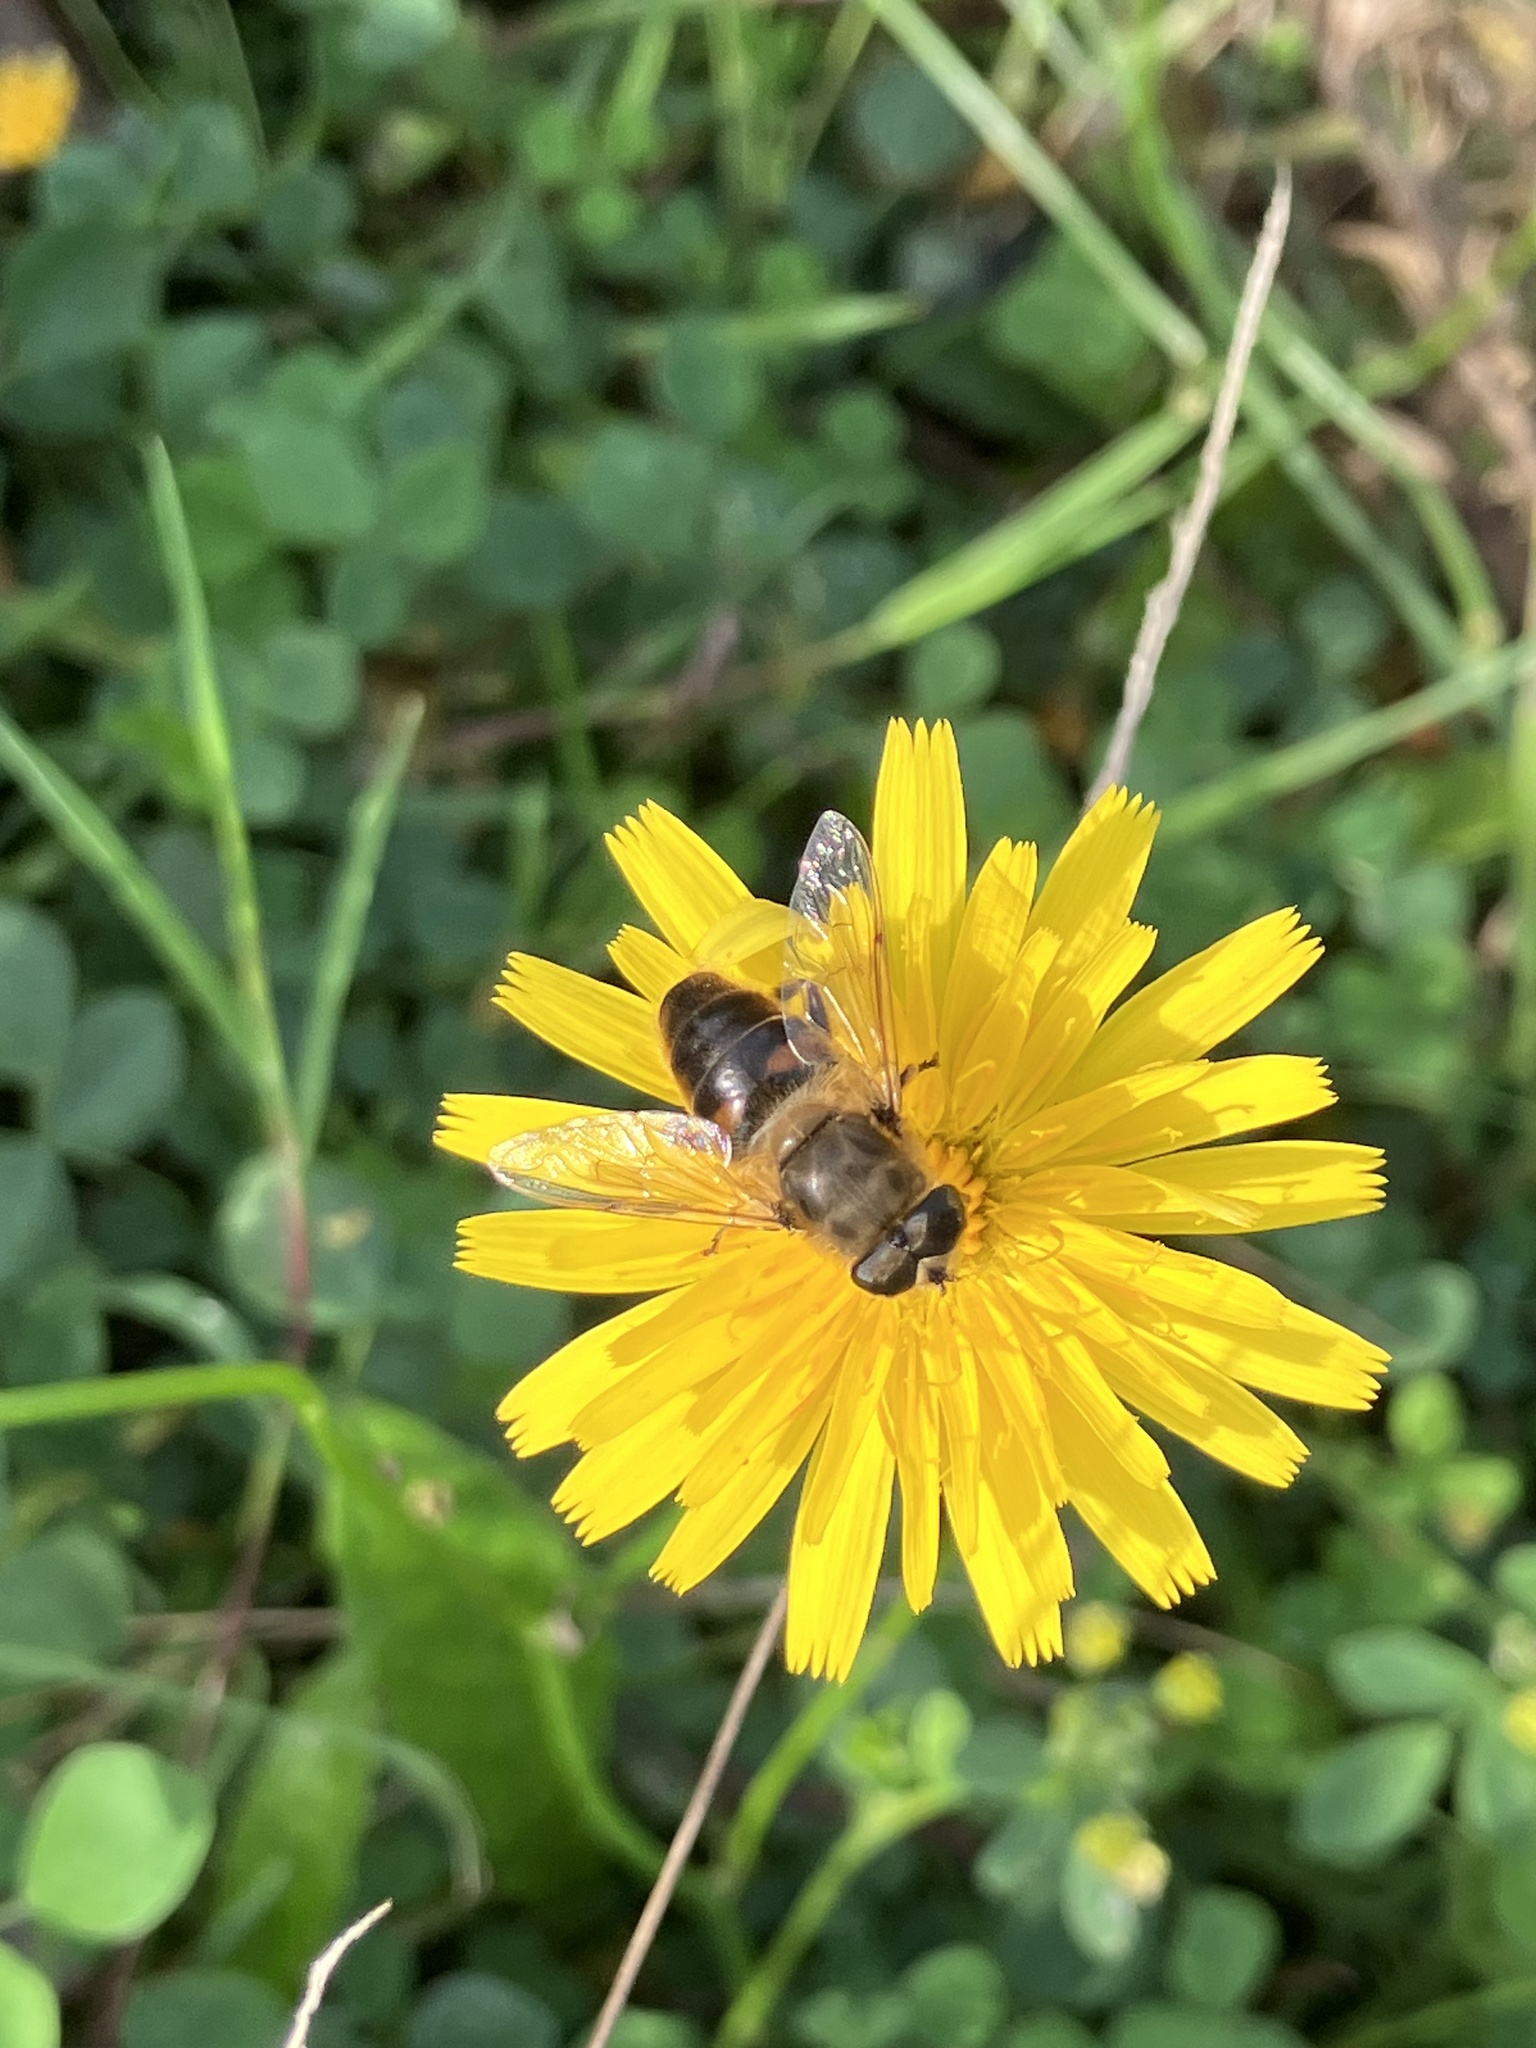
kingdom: Animalia
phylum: Arthropoda
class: Insecta
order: Diptera
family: Syrphidae
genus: Eristalis
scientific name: Eristalis tenax
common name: Drone fly
